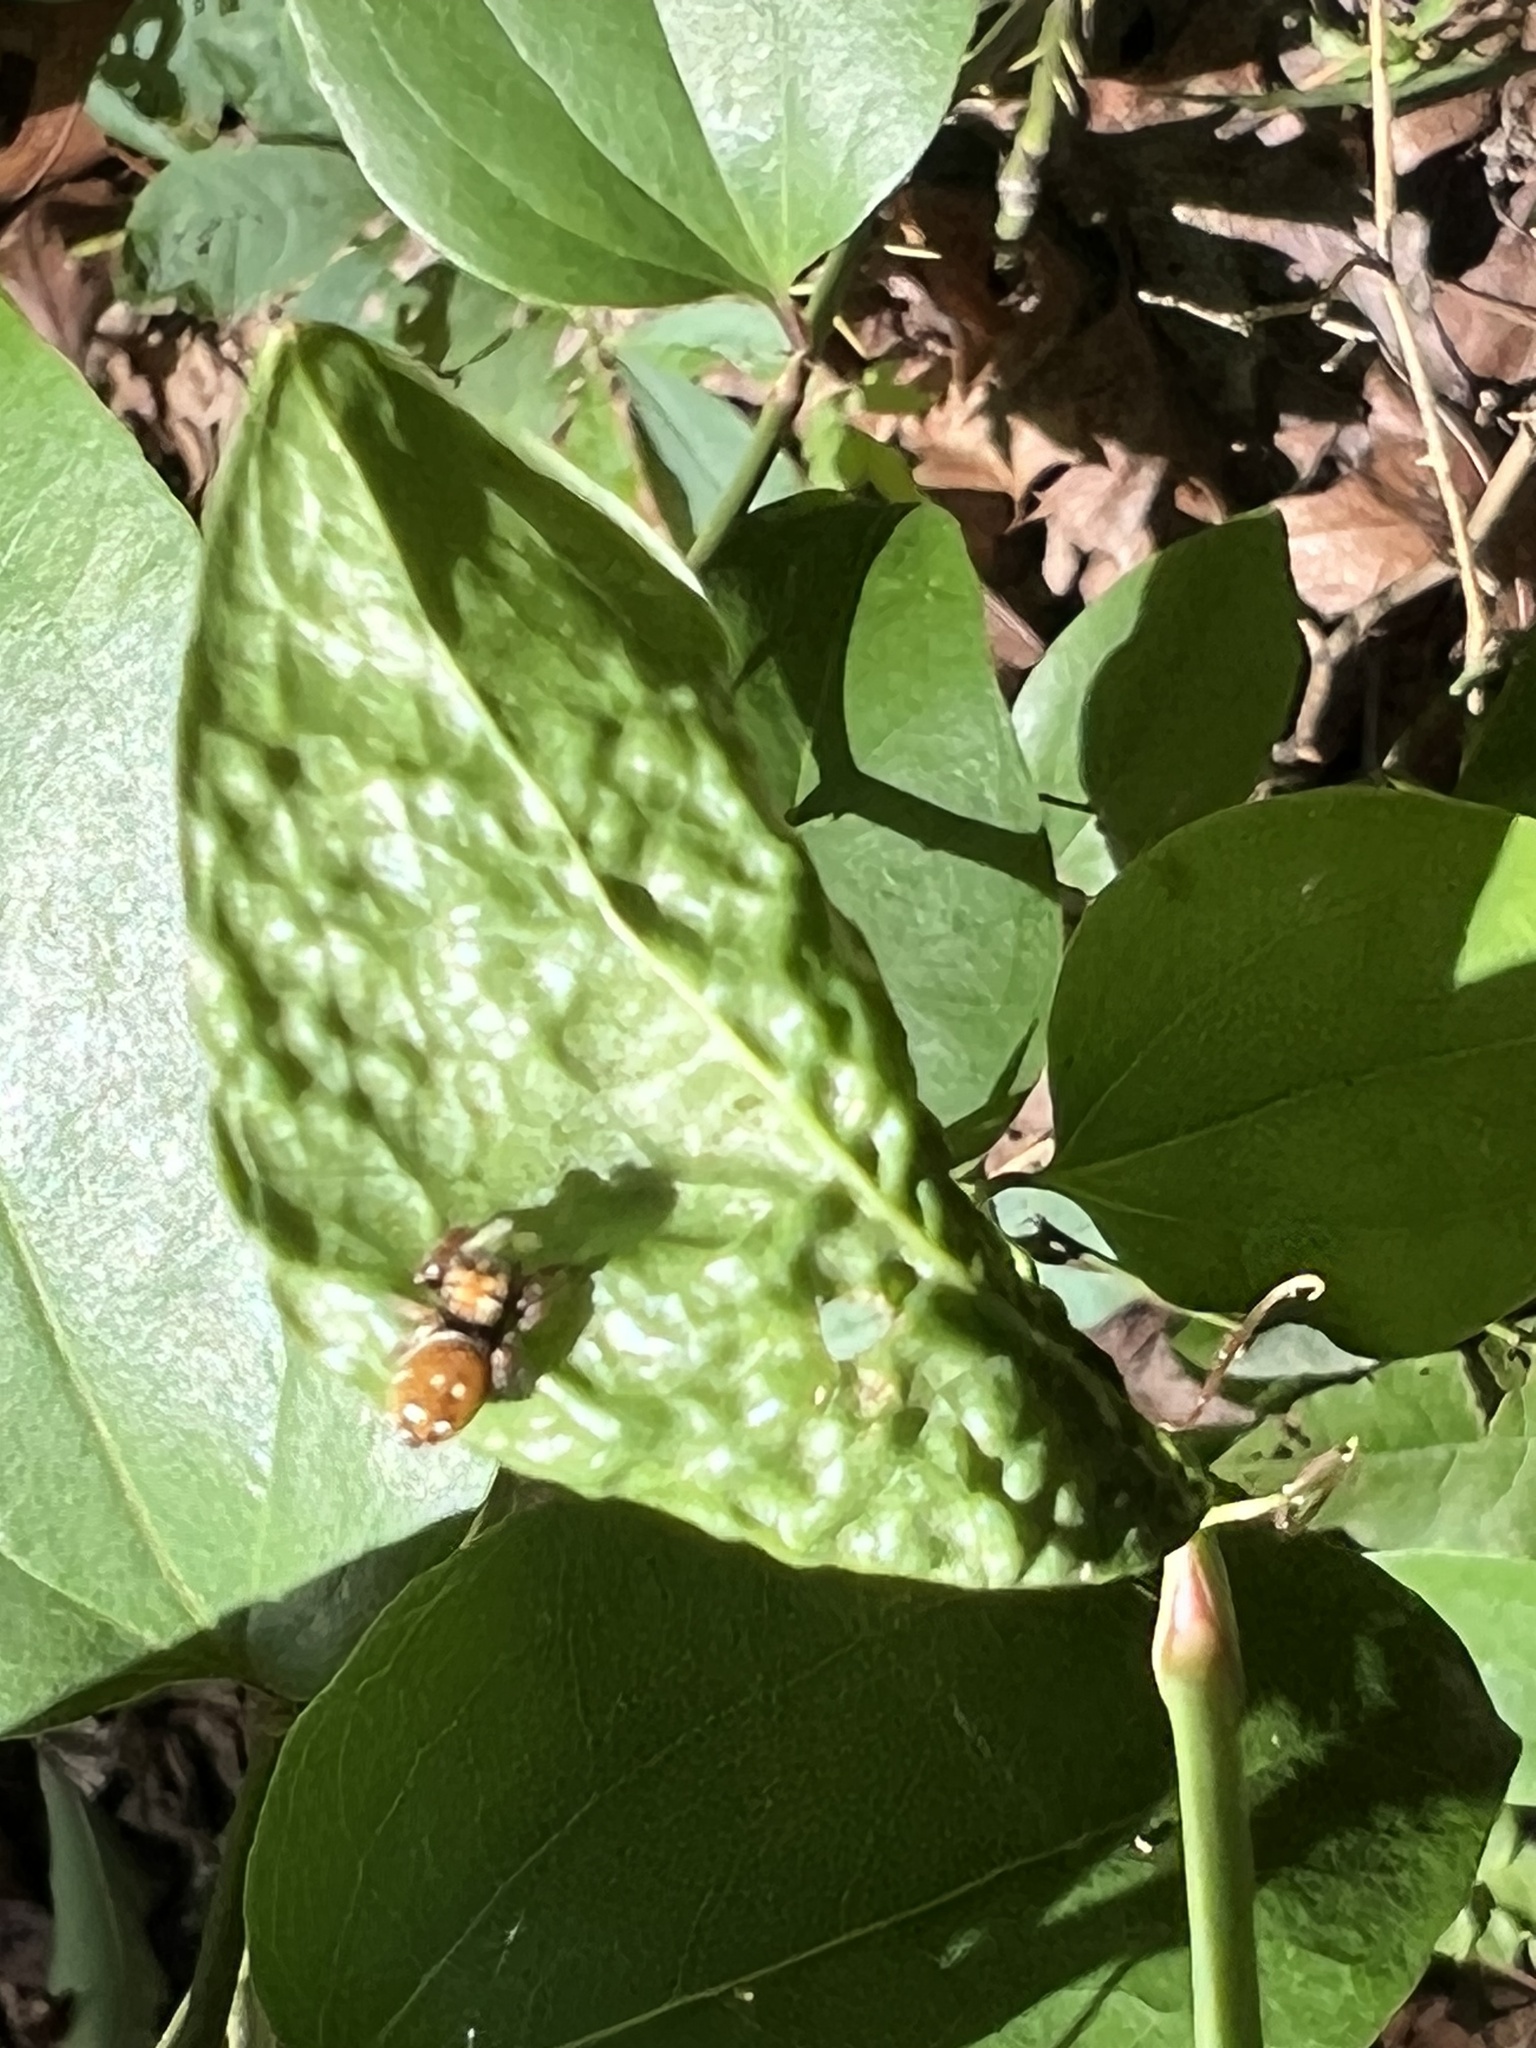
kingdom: Animalia
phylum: Arthropoda
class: Arachnida
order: Araneae
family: Salticidae
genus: Phidippus
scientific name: Phidippus whitmani
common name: Whitman's jumping spider
